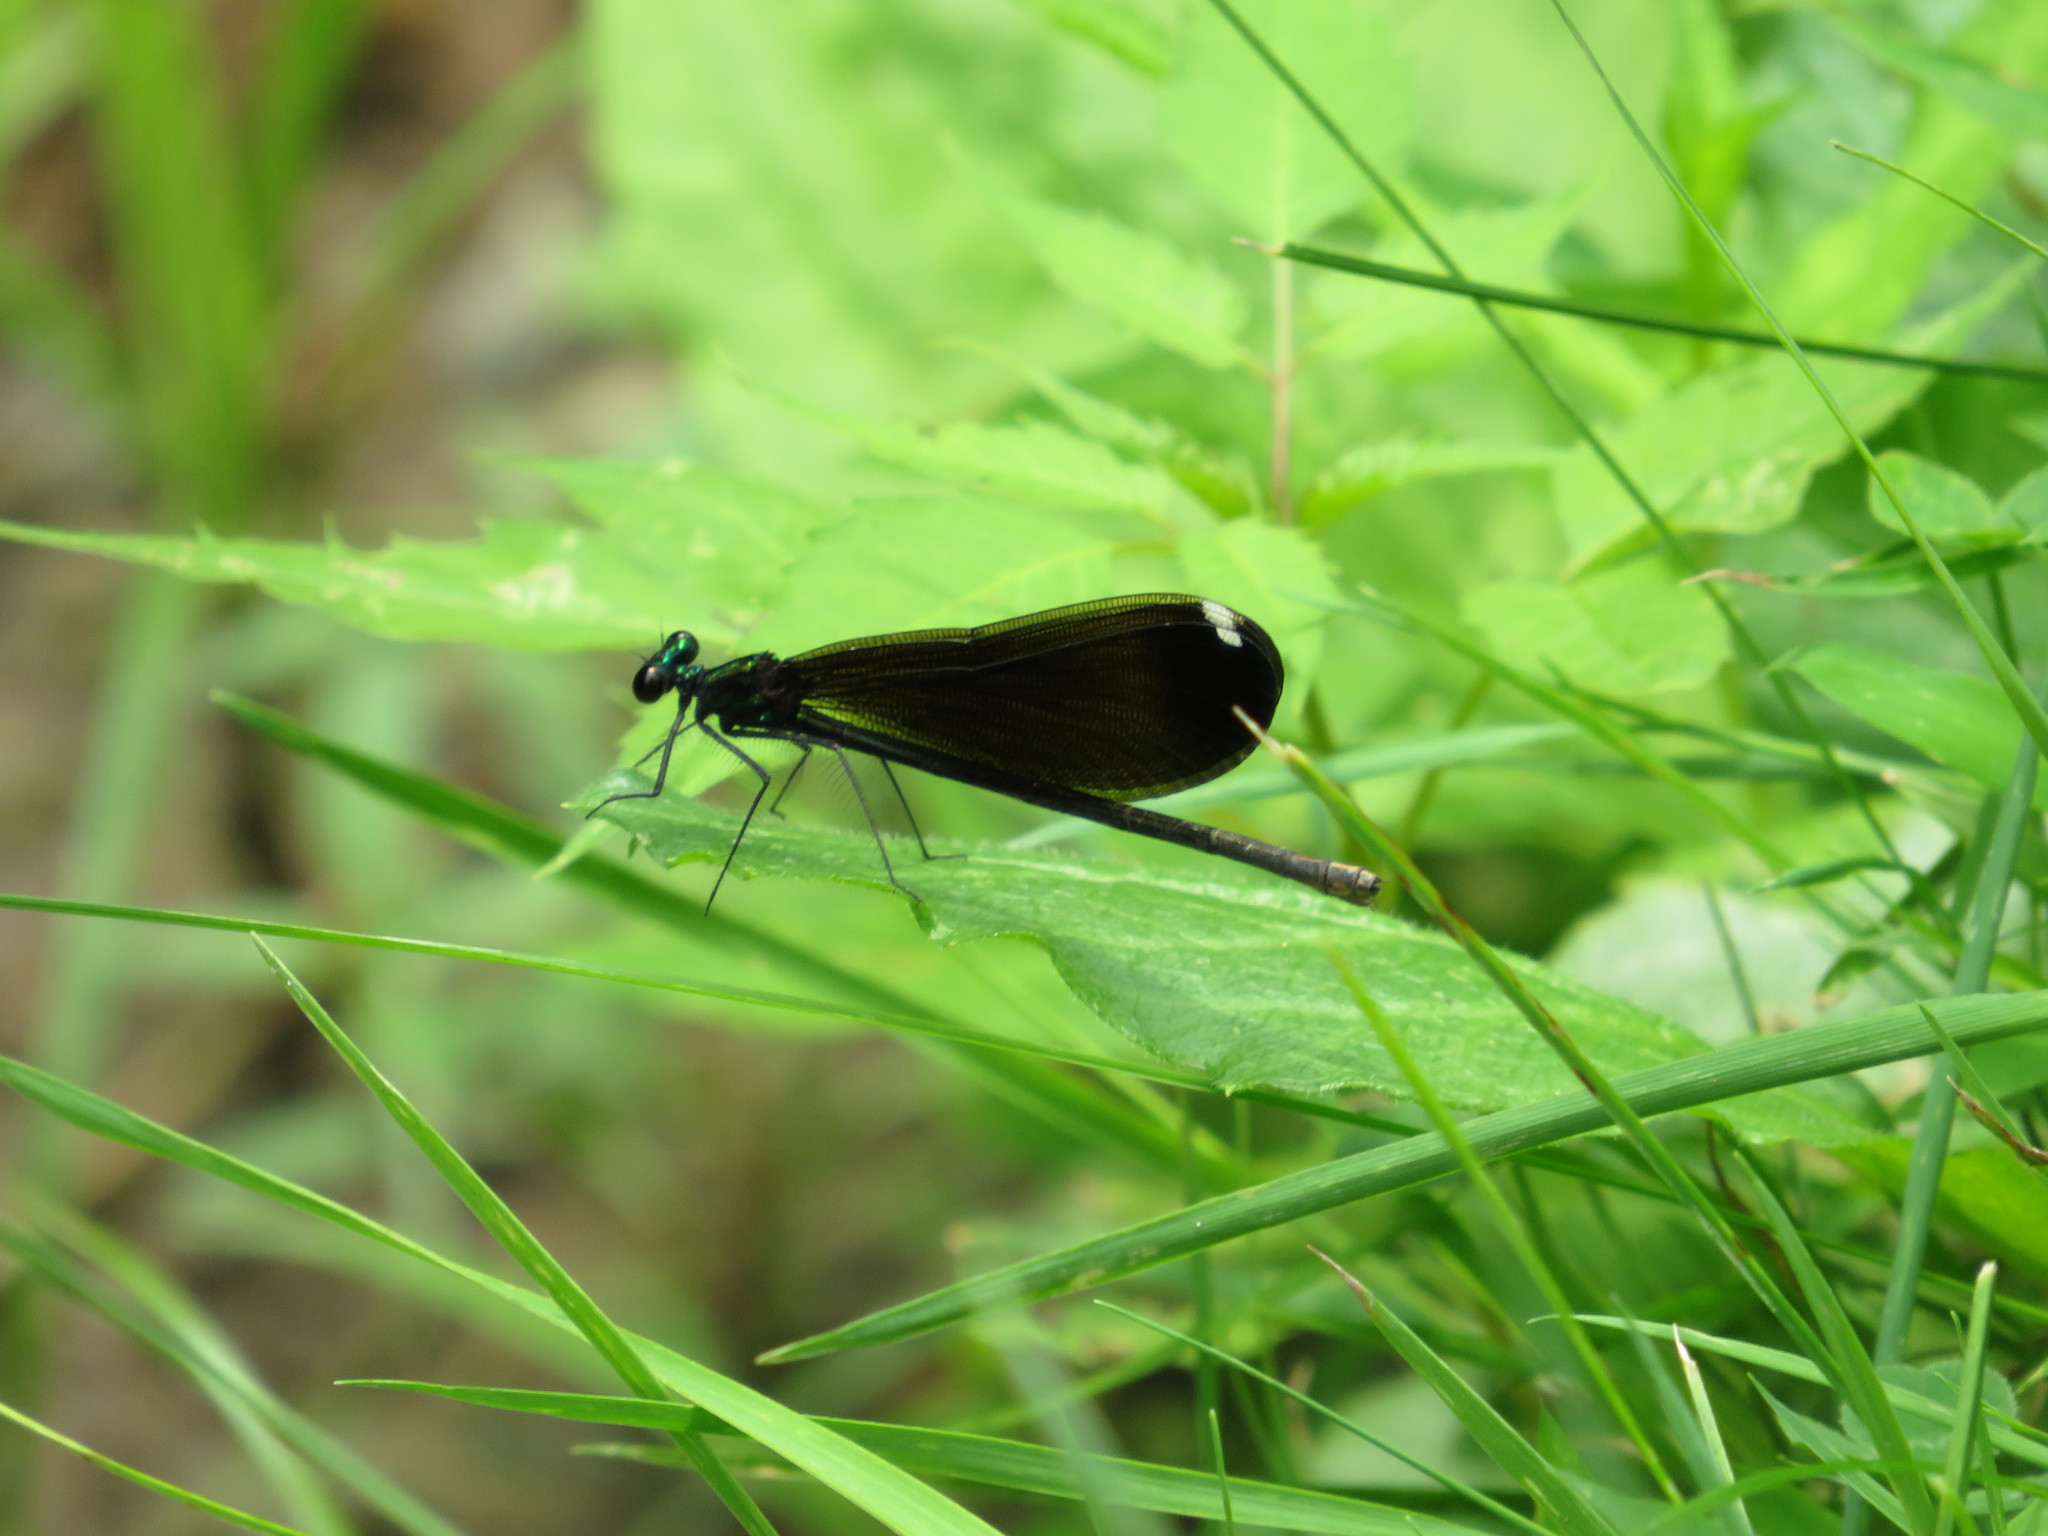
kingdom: Animalia
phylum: Arthropoda
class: Insecta
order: Odonata
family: Calopterygidae
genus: Calopteryx
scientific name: Calopteryx maculata
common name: Ebony jewelwing
